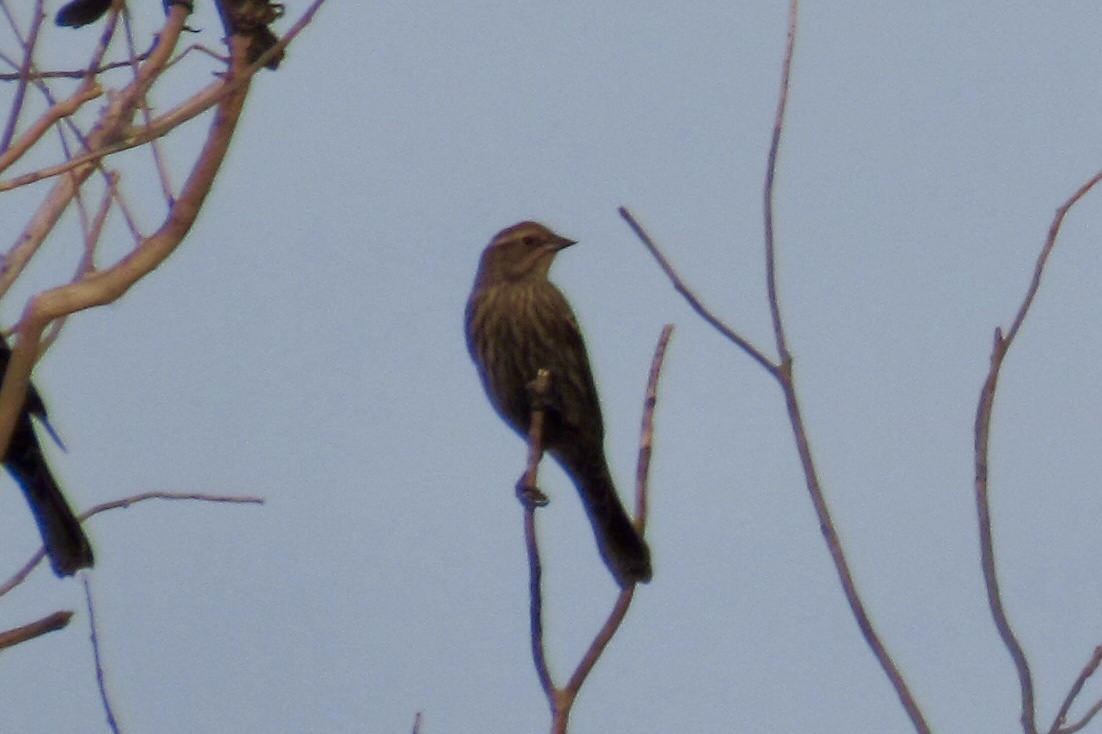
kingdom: Animalia
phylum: Chordata
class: Aves
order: Passeriformes
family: Icteridae
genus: Agelaius
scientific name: Agelaius phoeniceus
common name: Red-winged blackbird
